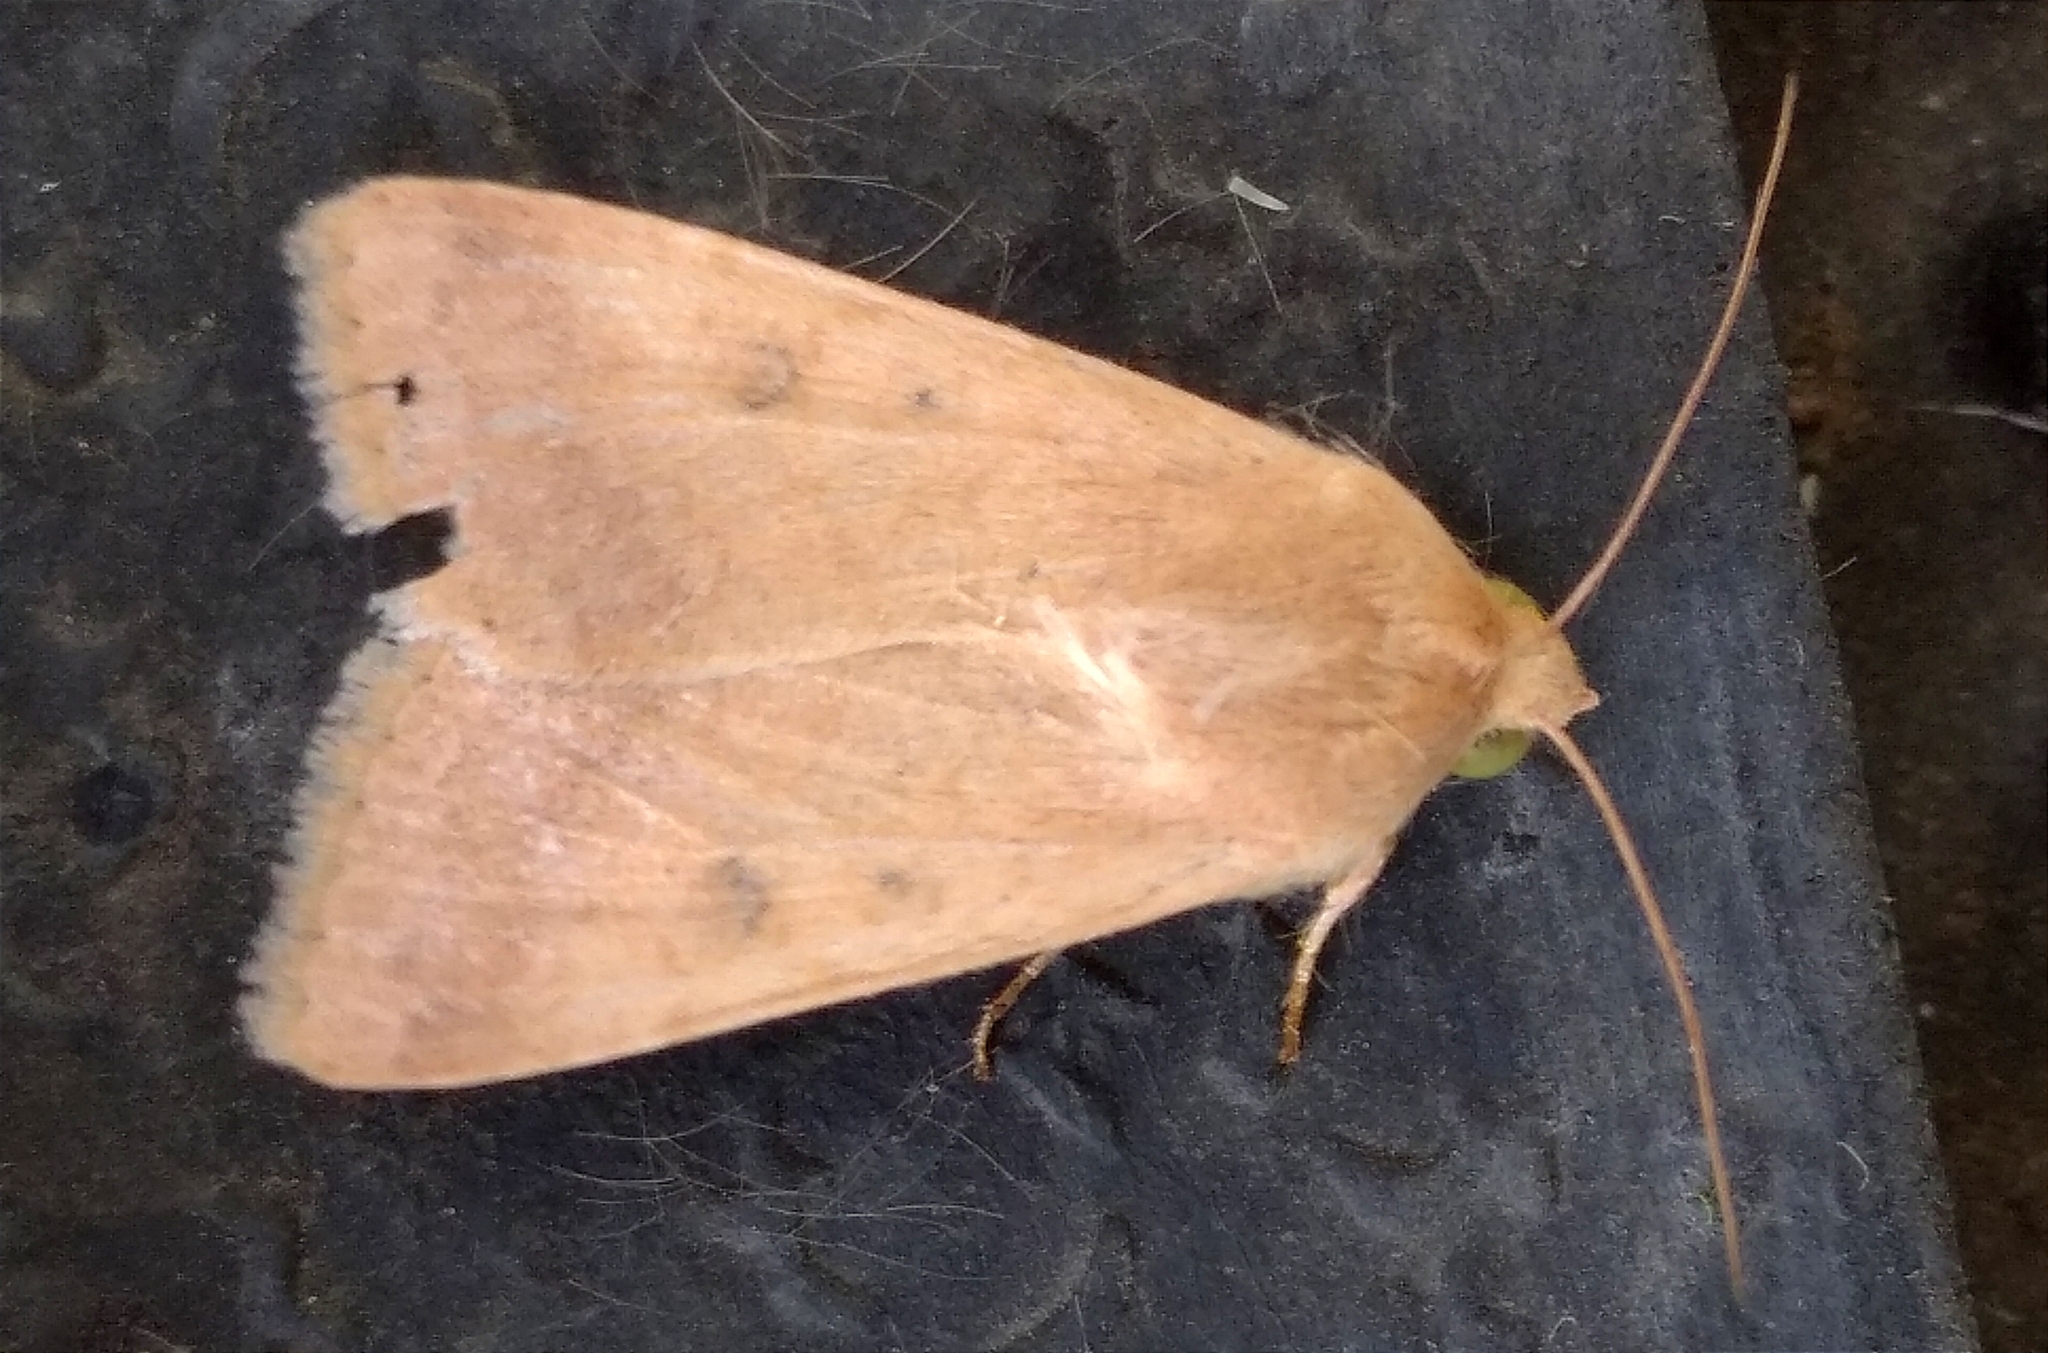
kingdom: Animalia
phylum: Arthropoda
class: Insecta
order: Lepidoptera
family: Noctuidae
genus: Helicoverpa
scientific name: Helicoverpa armigera
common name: Cotton bollworm
